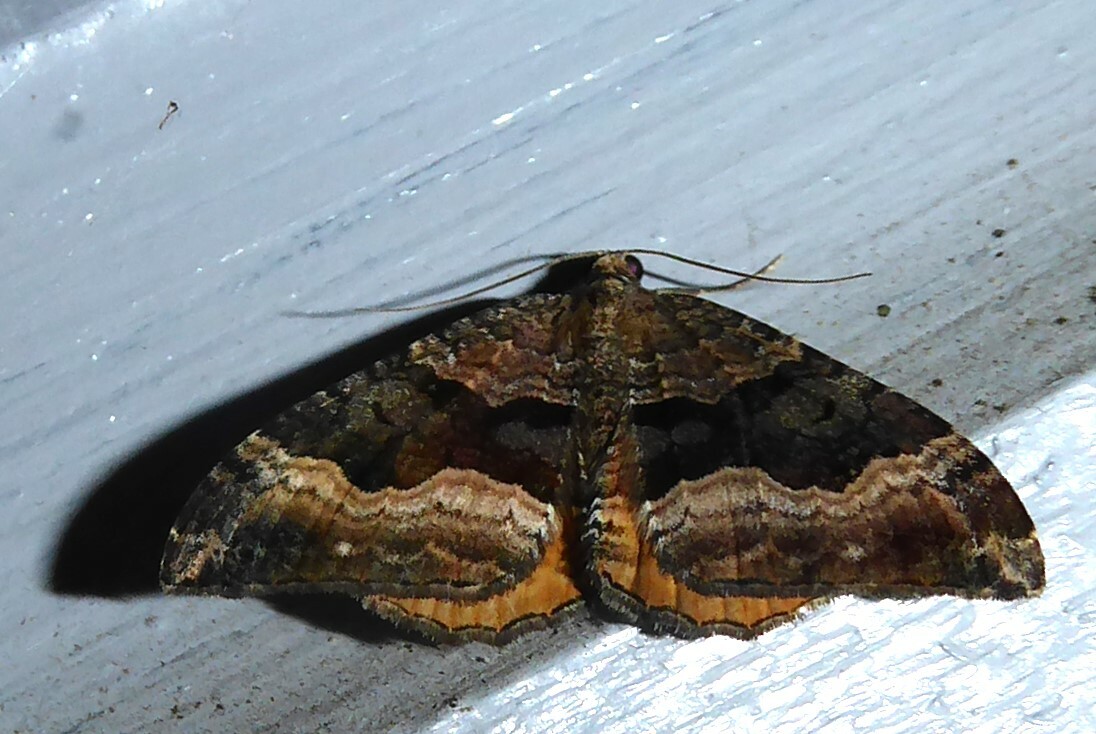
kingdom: Animalia
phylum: Arthropoda
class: Insecta
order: Lepidoptera
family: Geometridae
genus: Hydriomena
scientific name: Hydriomena deltoidata
